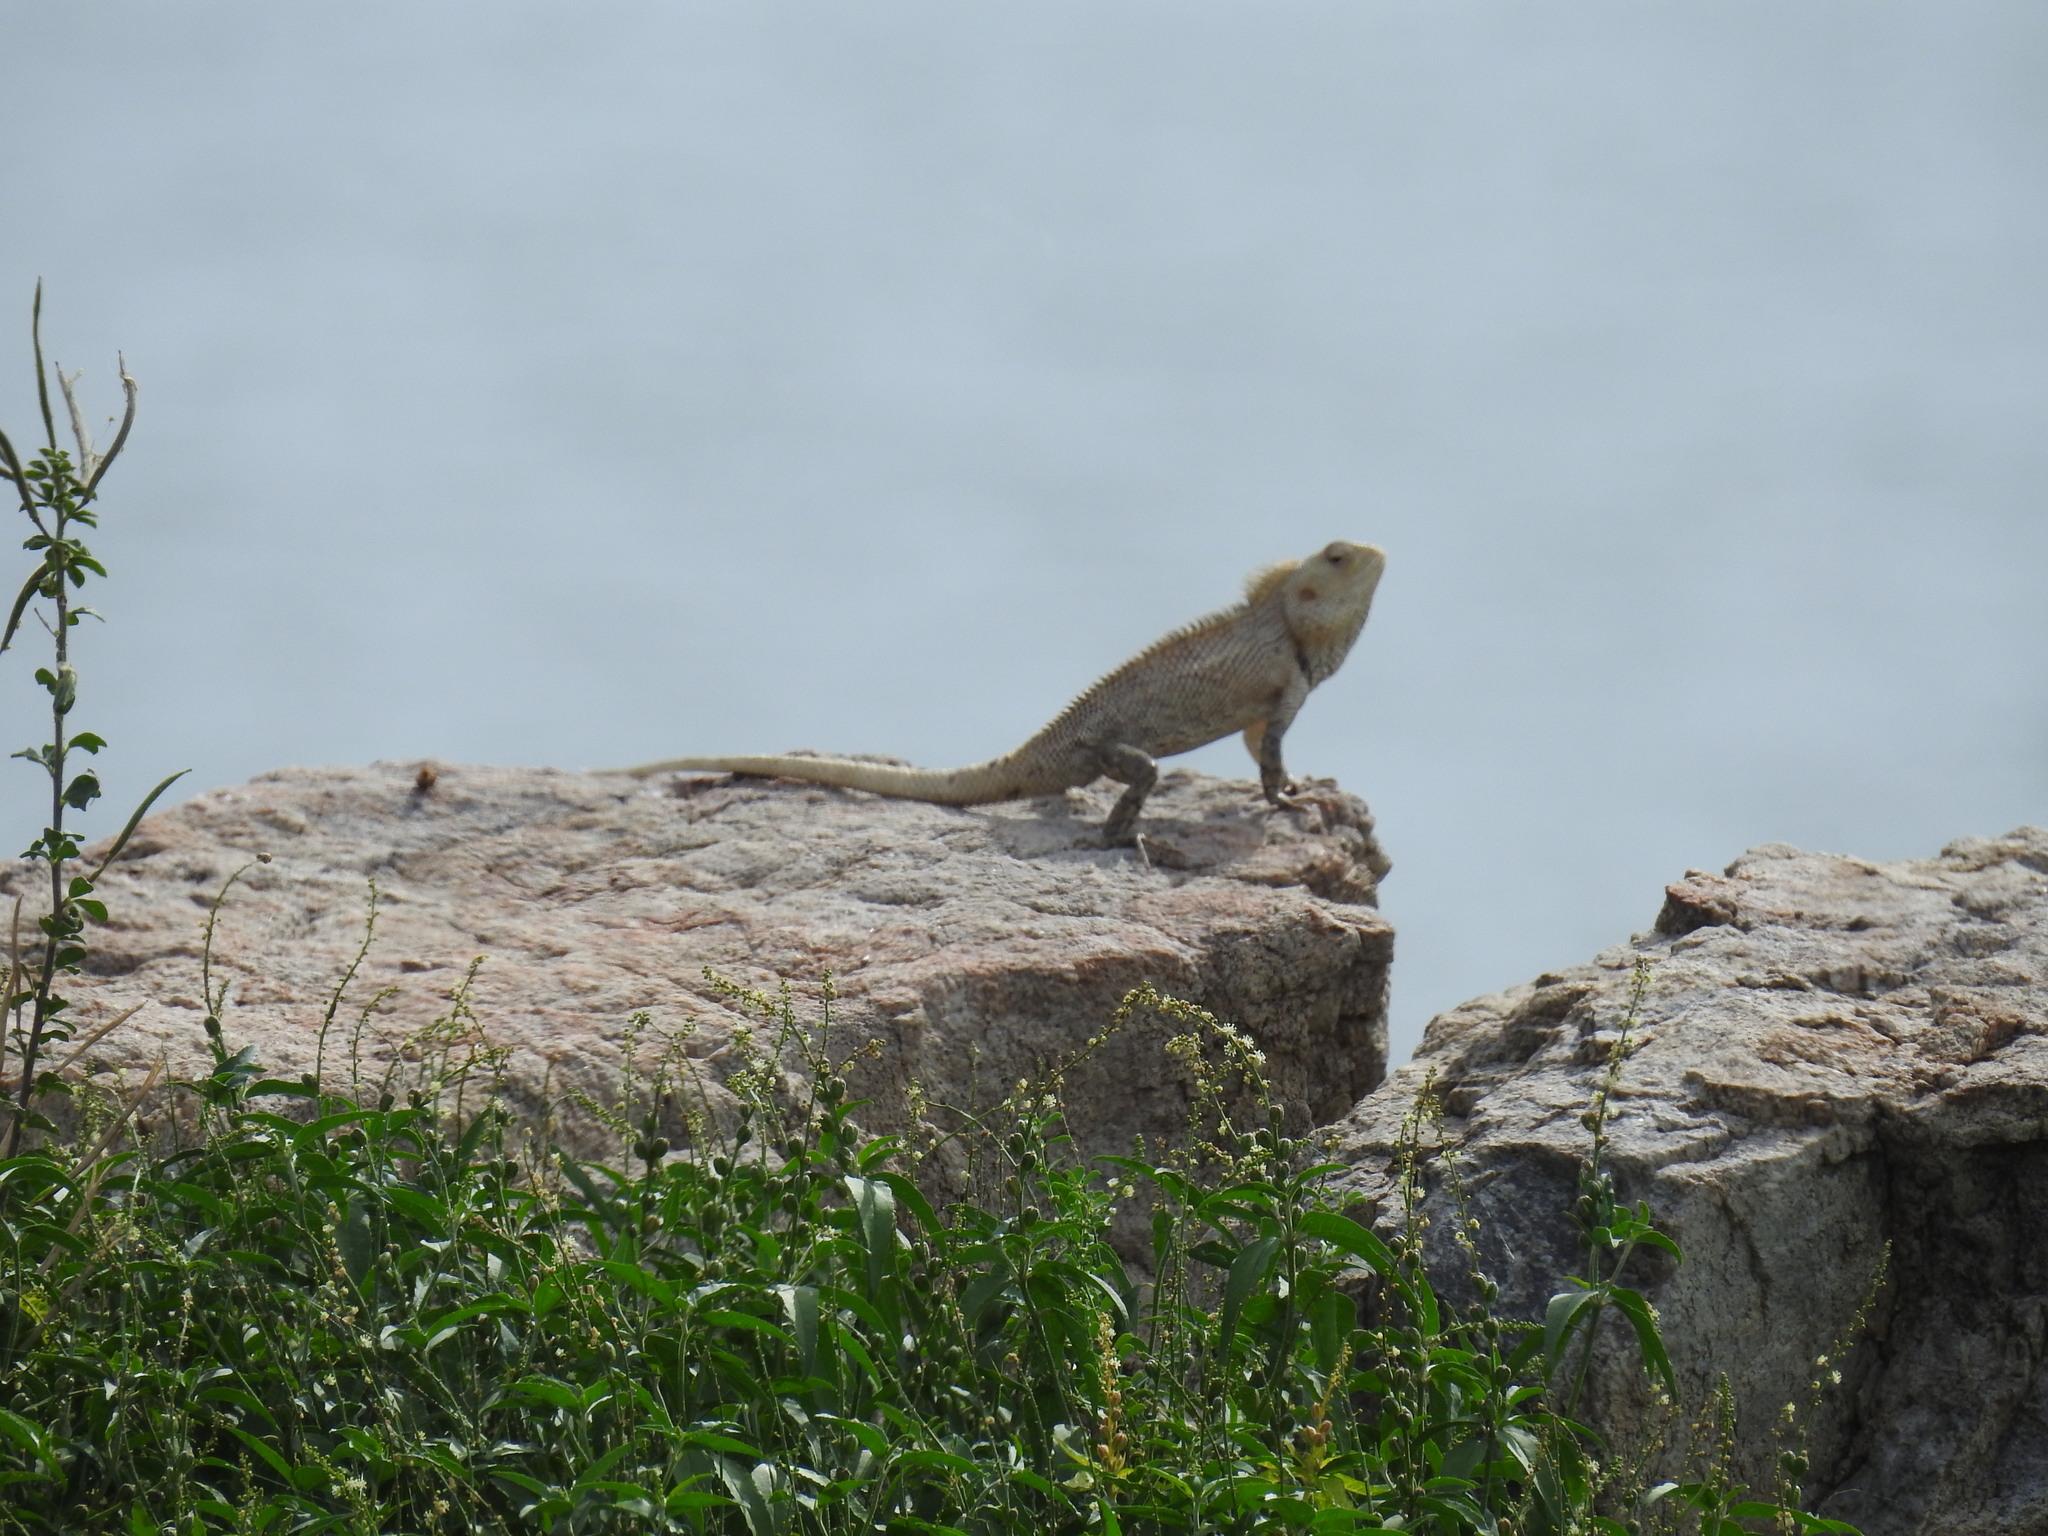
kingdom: Animalia
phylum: Chordata
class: Squamata
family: Agamidae
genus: Calotes
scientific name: Calotes versicolor
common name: Oriental garden lizard
